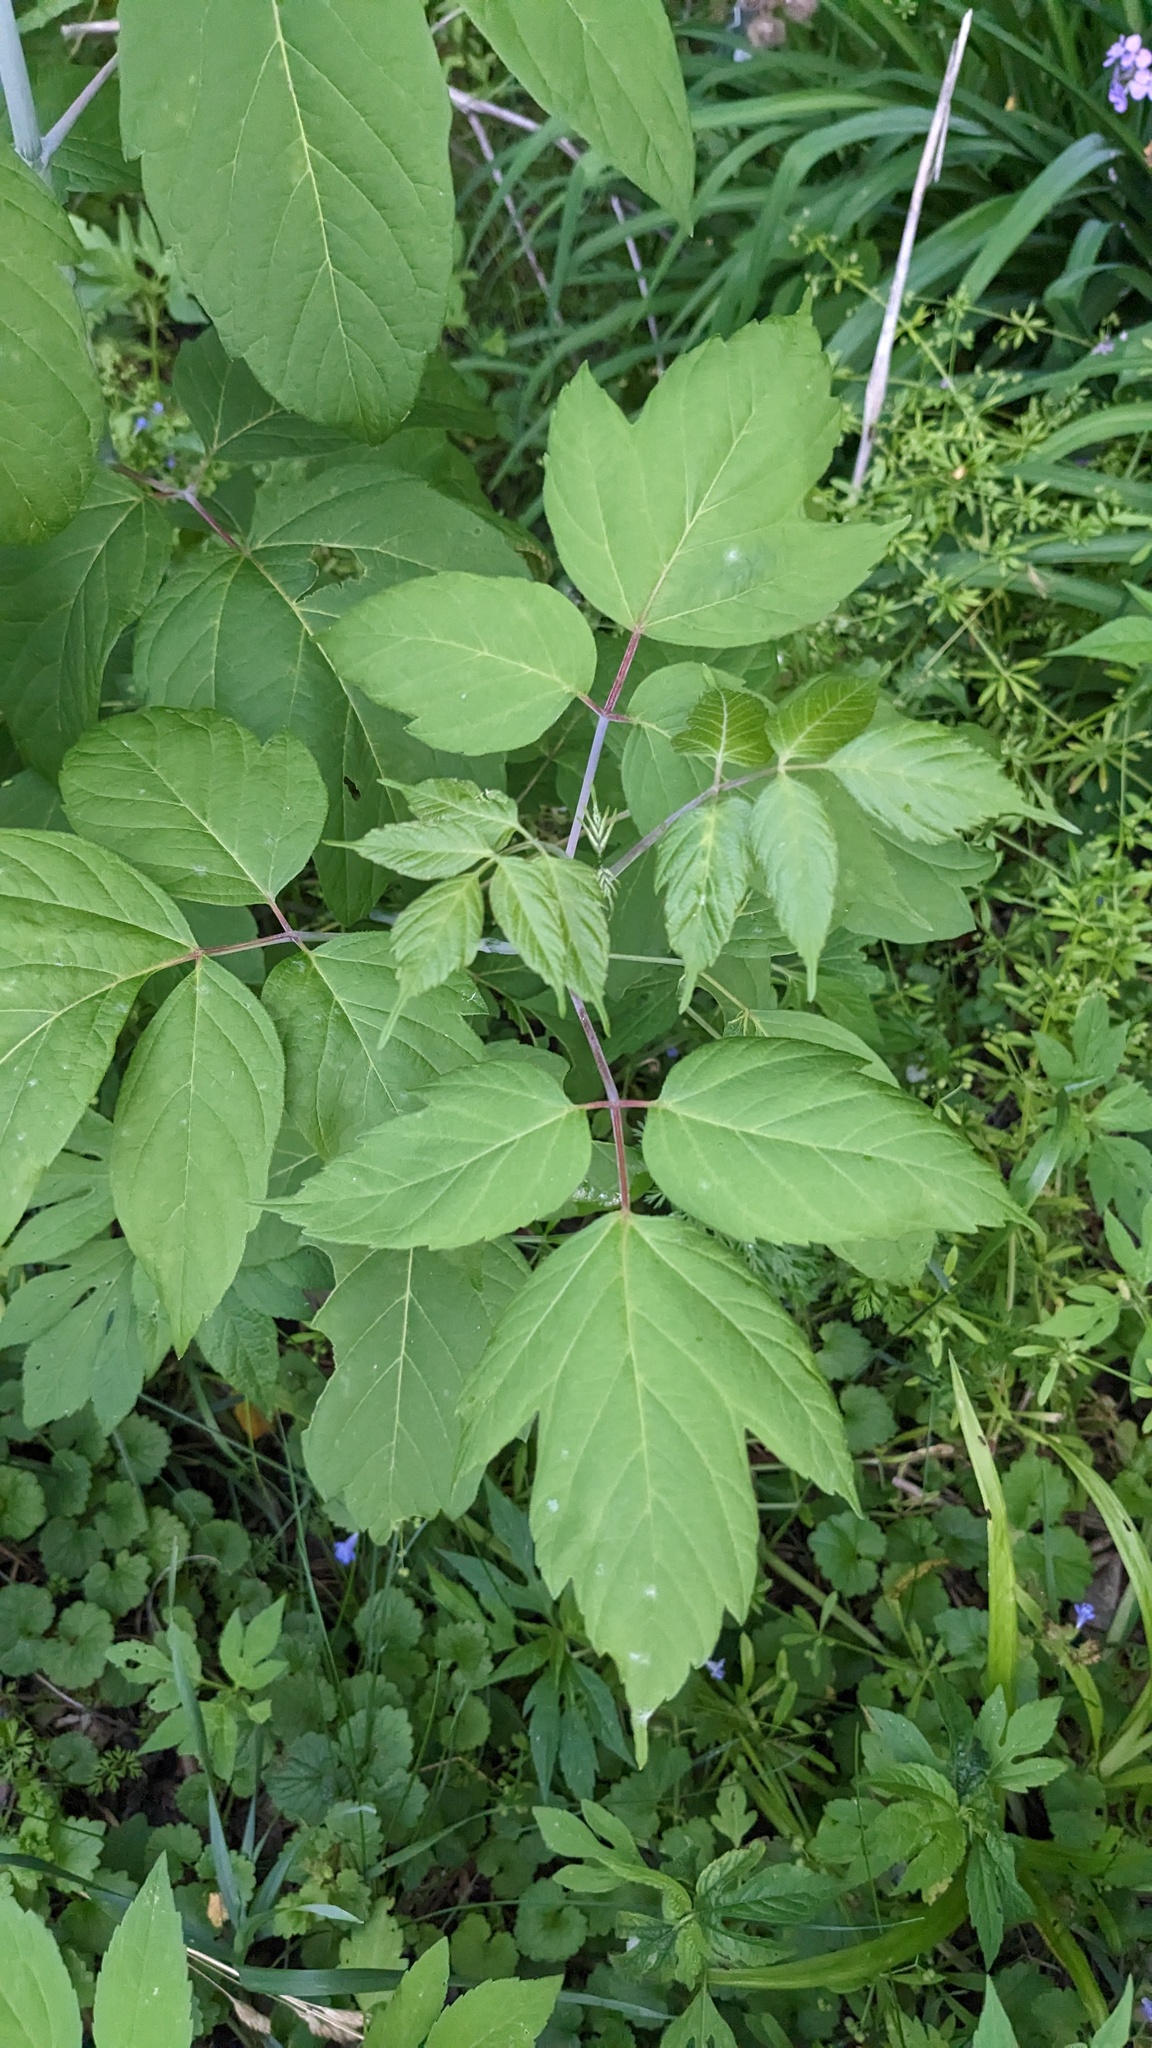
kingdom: Plantae
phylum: Tracheophyta
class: Magnoliopsida
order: Sapindales
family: Sapindaceae
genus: Acer
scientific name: Acer negundo
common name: Ashleaf maple
